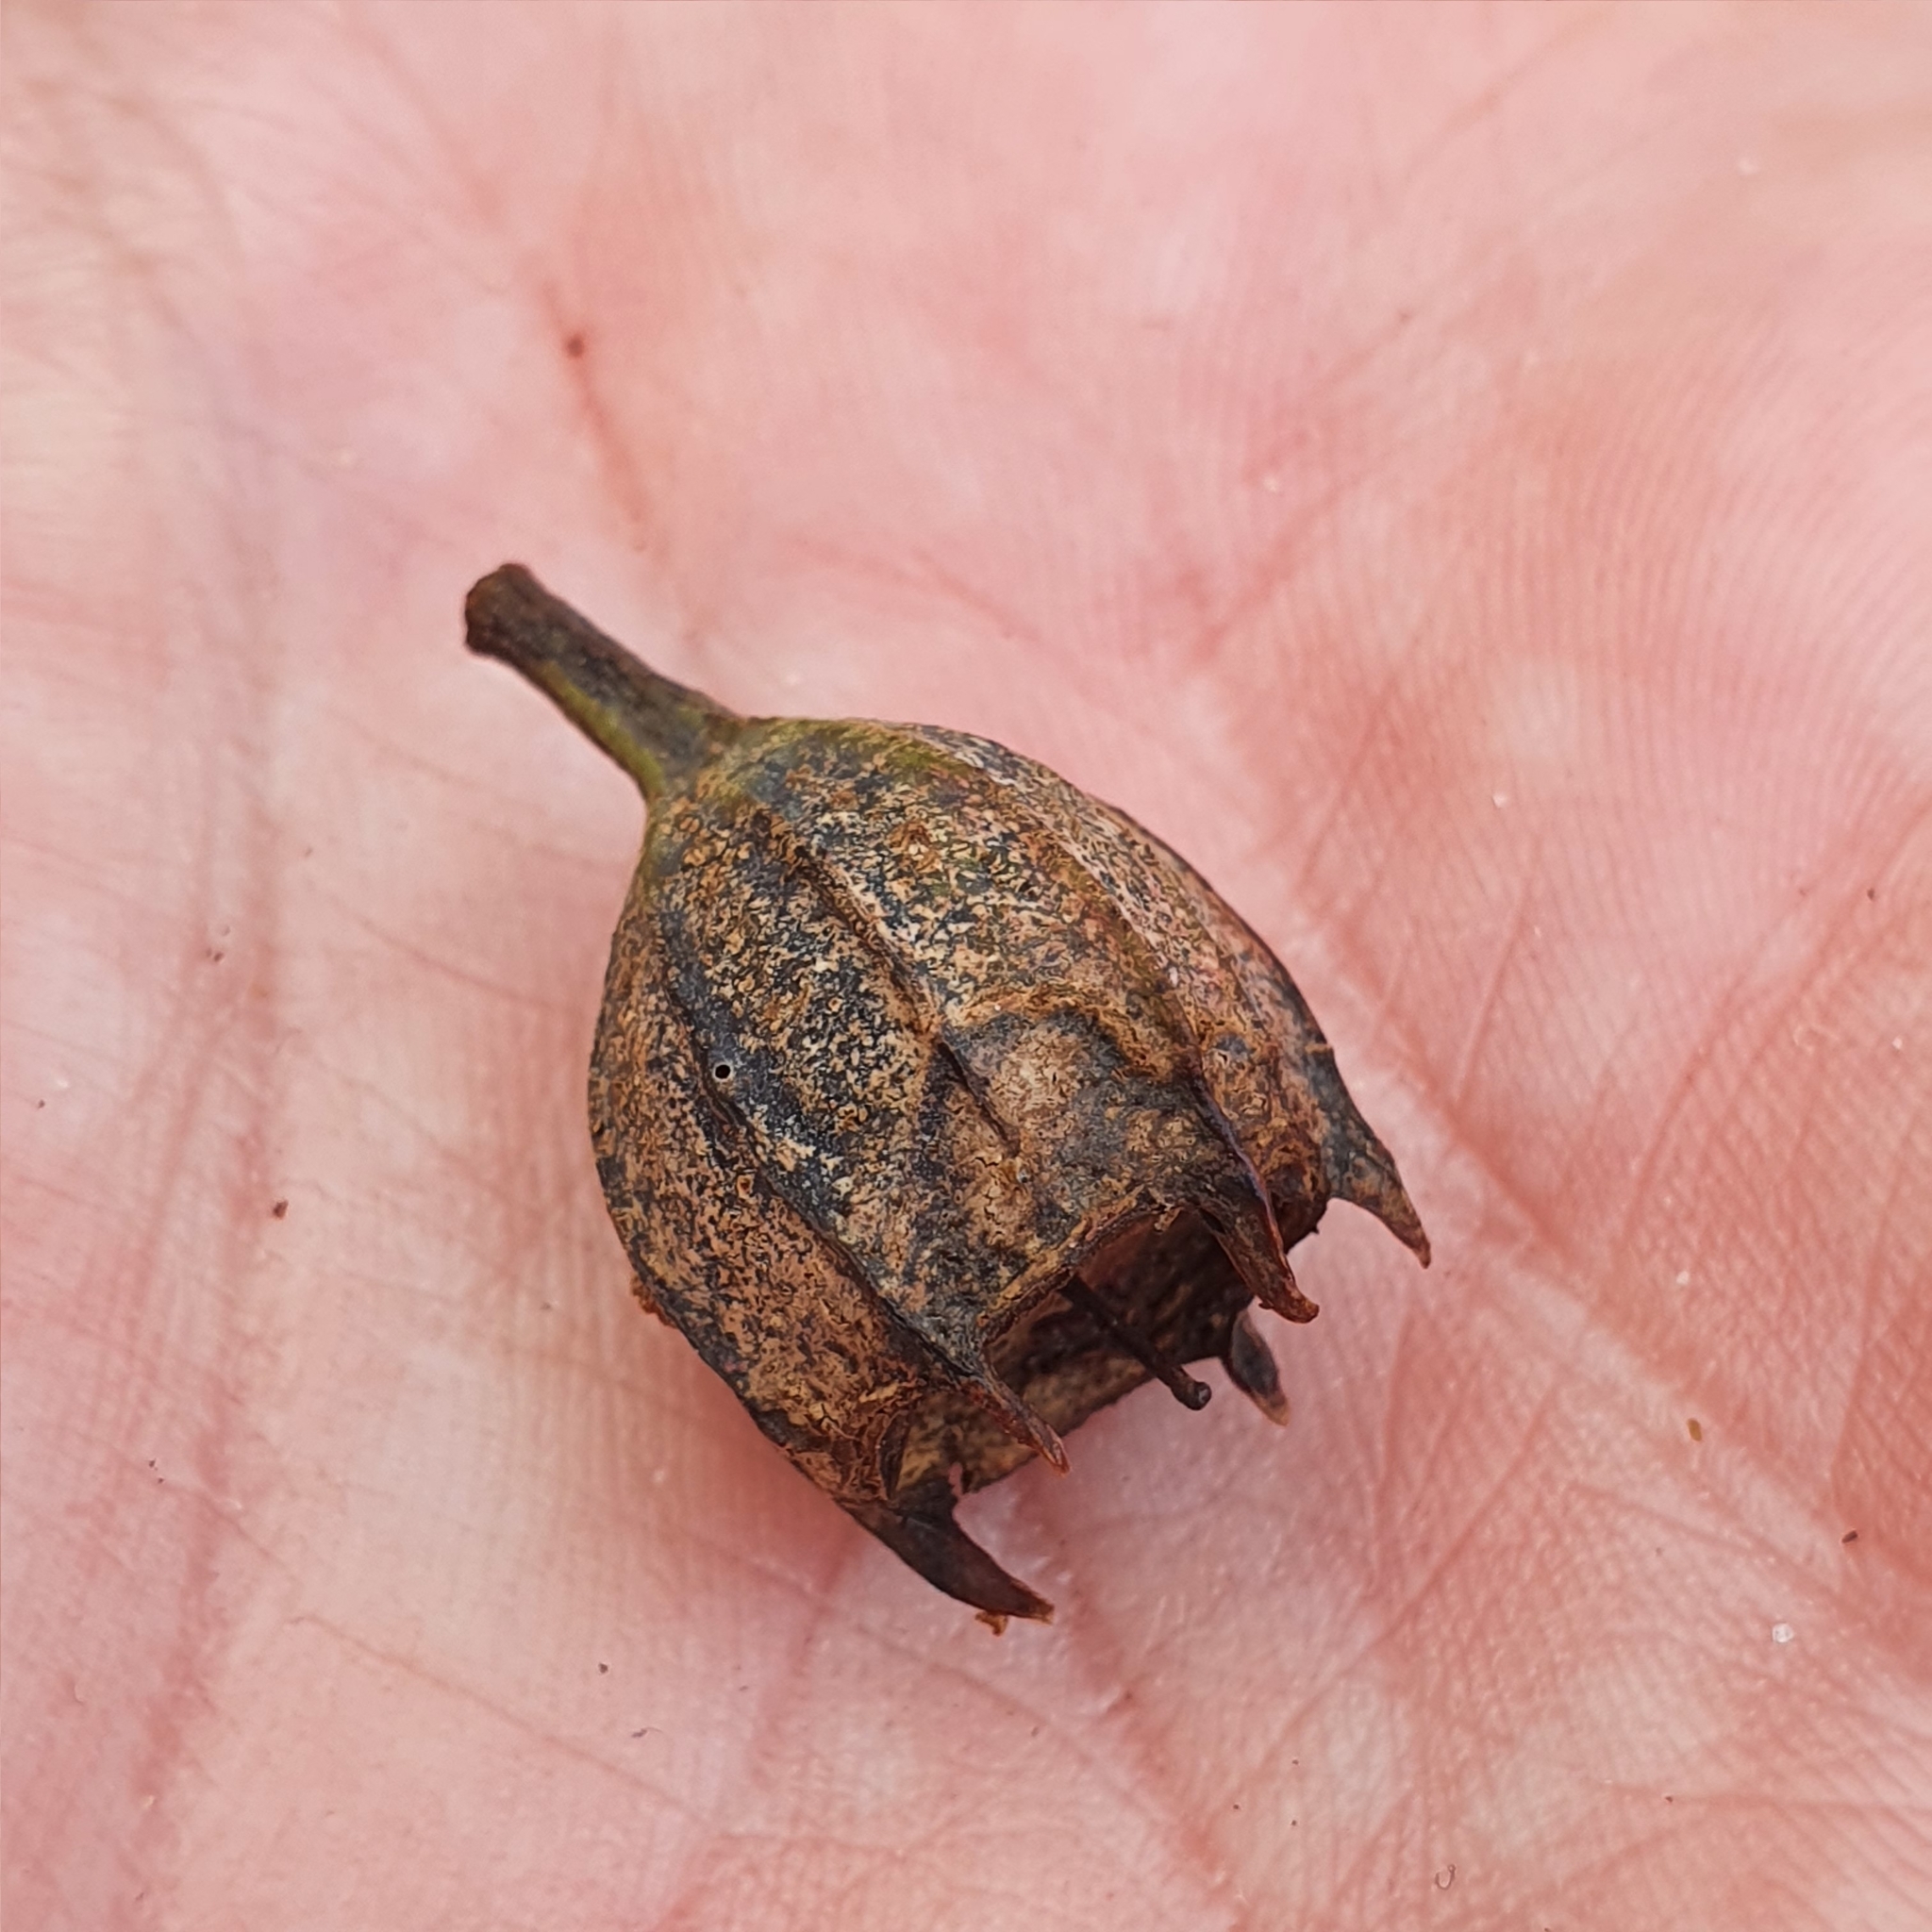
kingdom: Plantae
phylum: Tracheophyta
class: Magnoliopsida
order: Myrtales
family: Myrtaceae
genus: Angophora
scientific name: Angophora costata
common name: Gum myrtle
